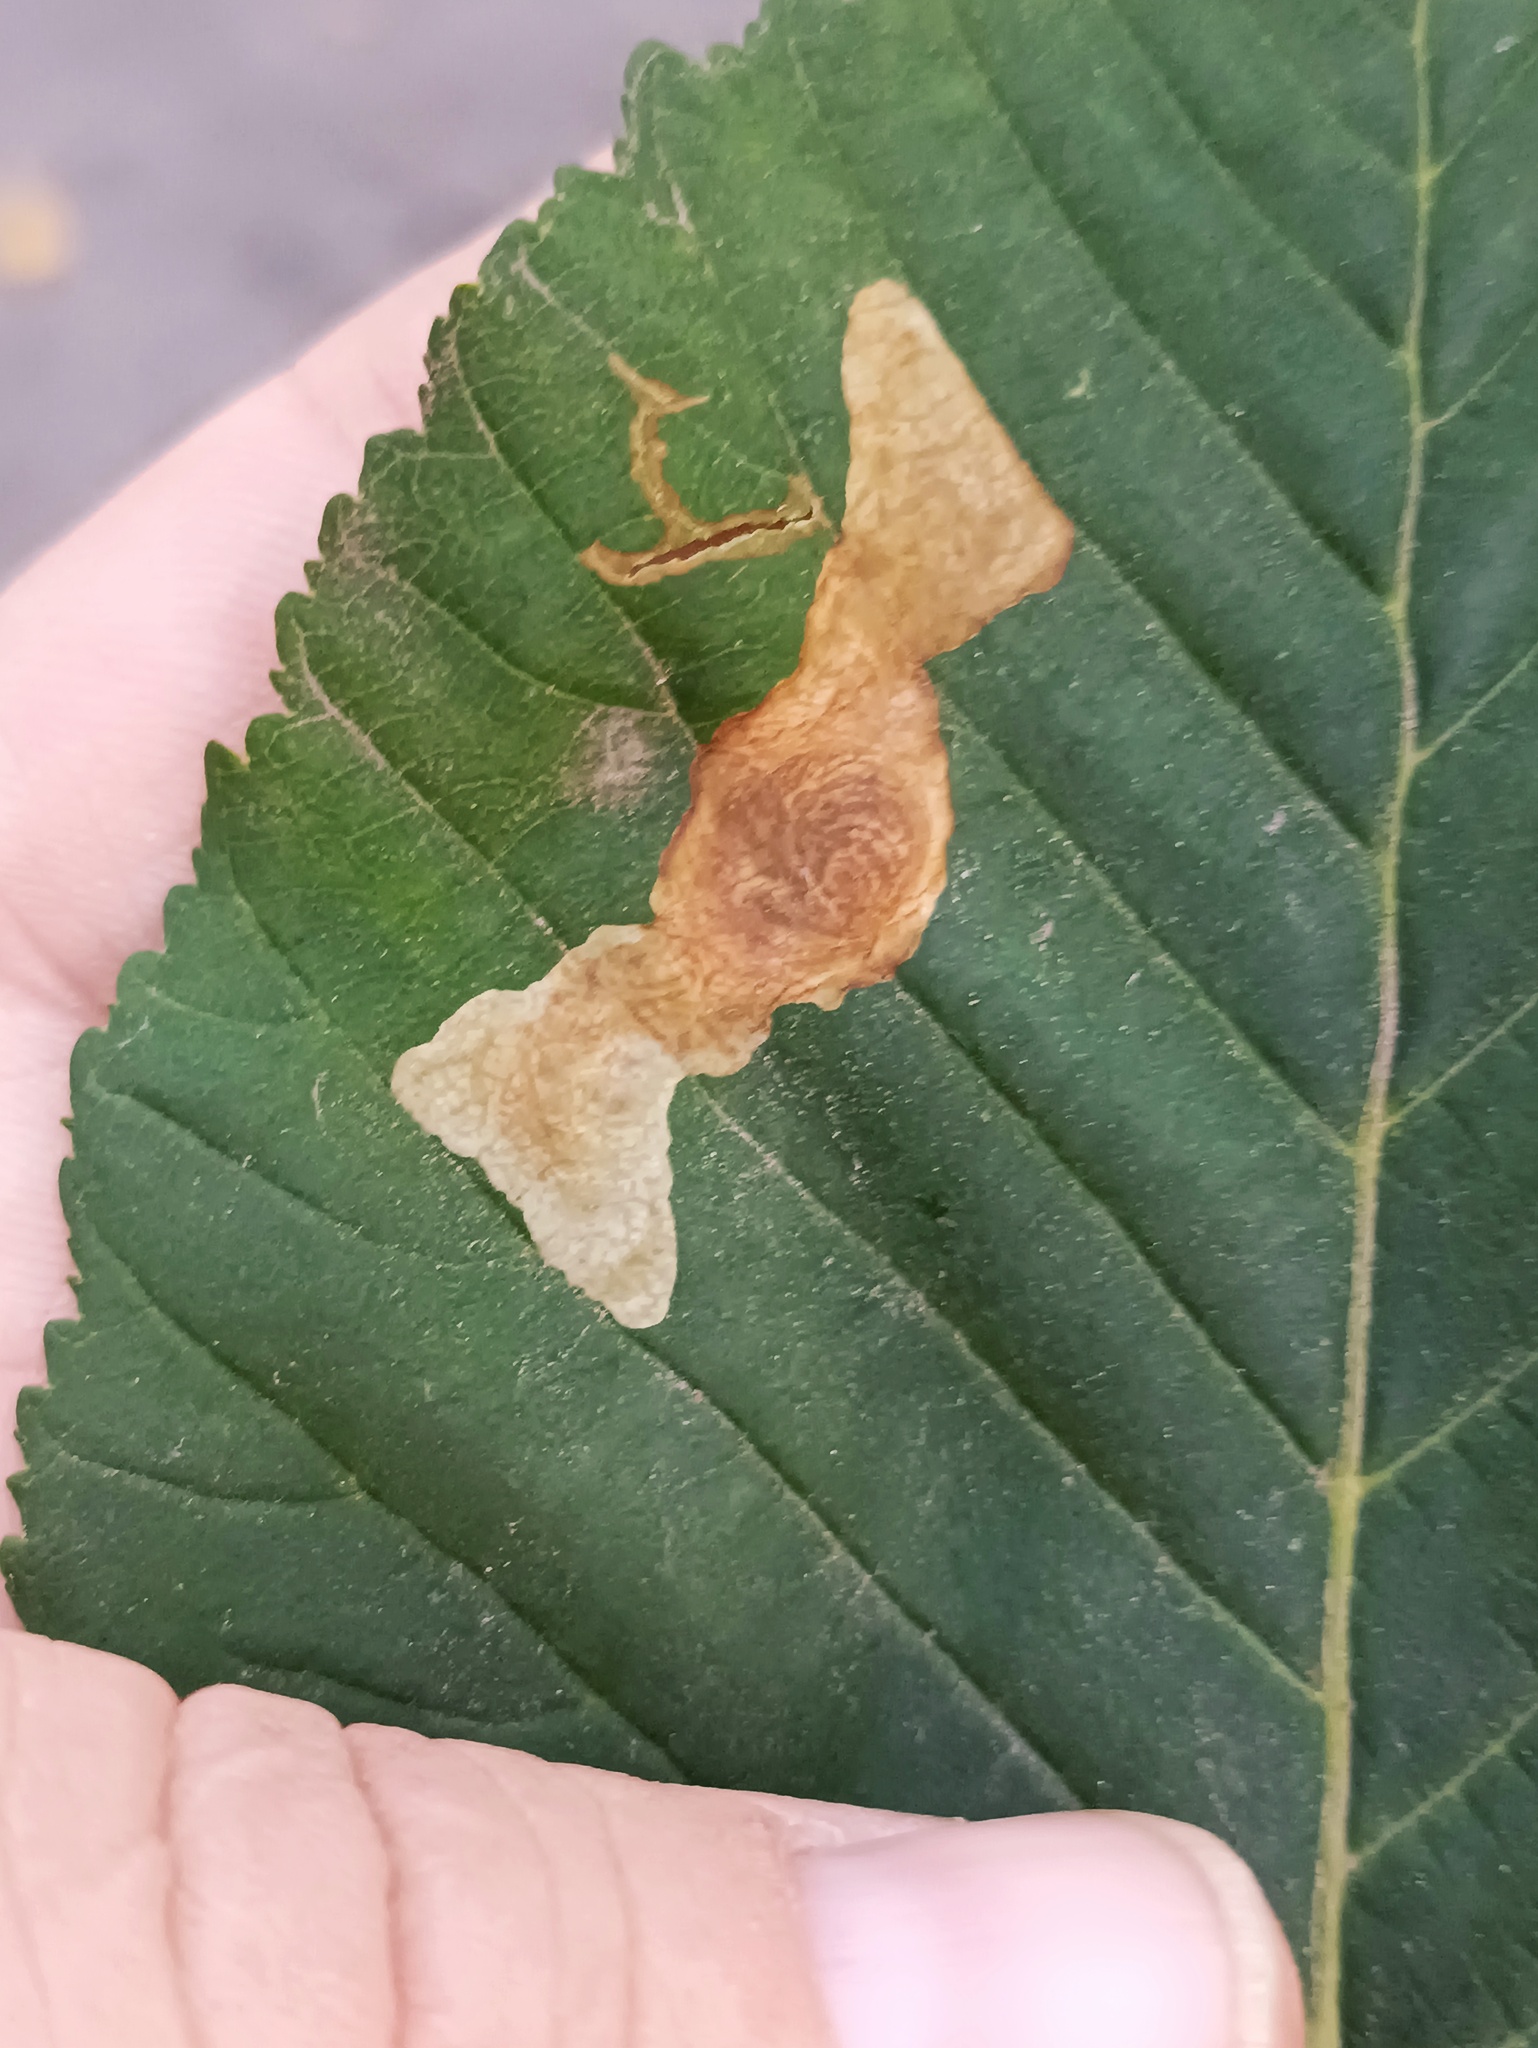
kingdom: Animalia
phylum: Arthropoda
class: Insecta
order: Lepidoptera
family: Gracillariidae
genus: Cameraria
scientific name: Cameraria ohridella
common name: Horse-chestnut leaf-miner
